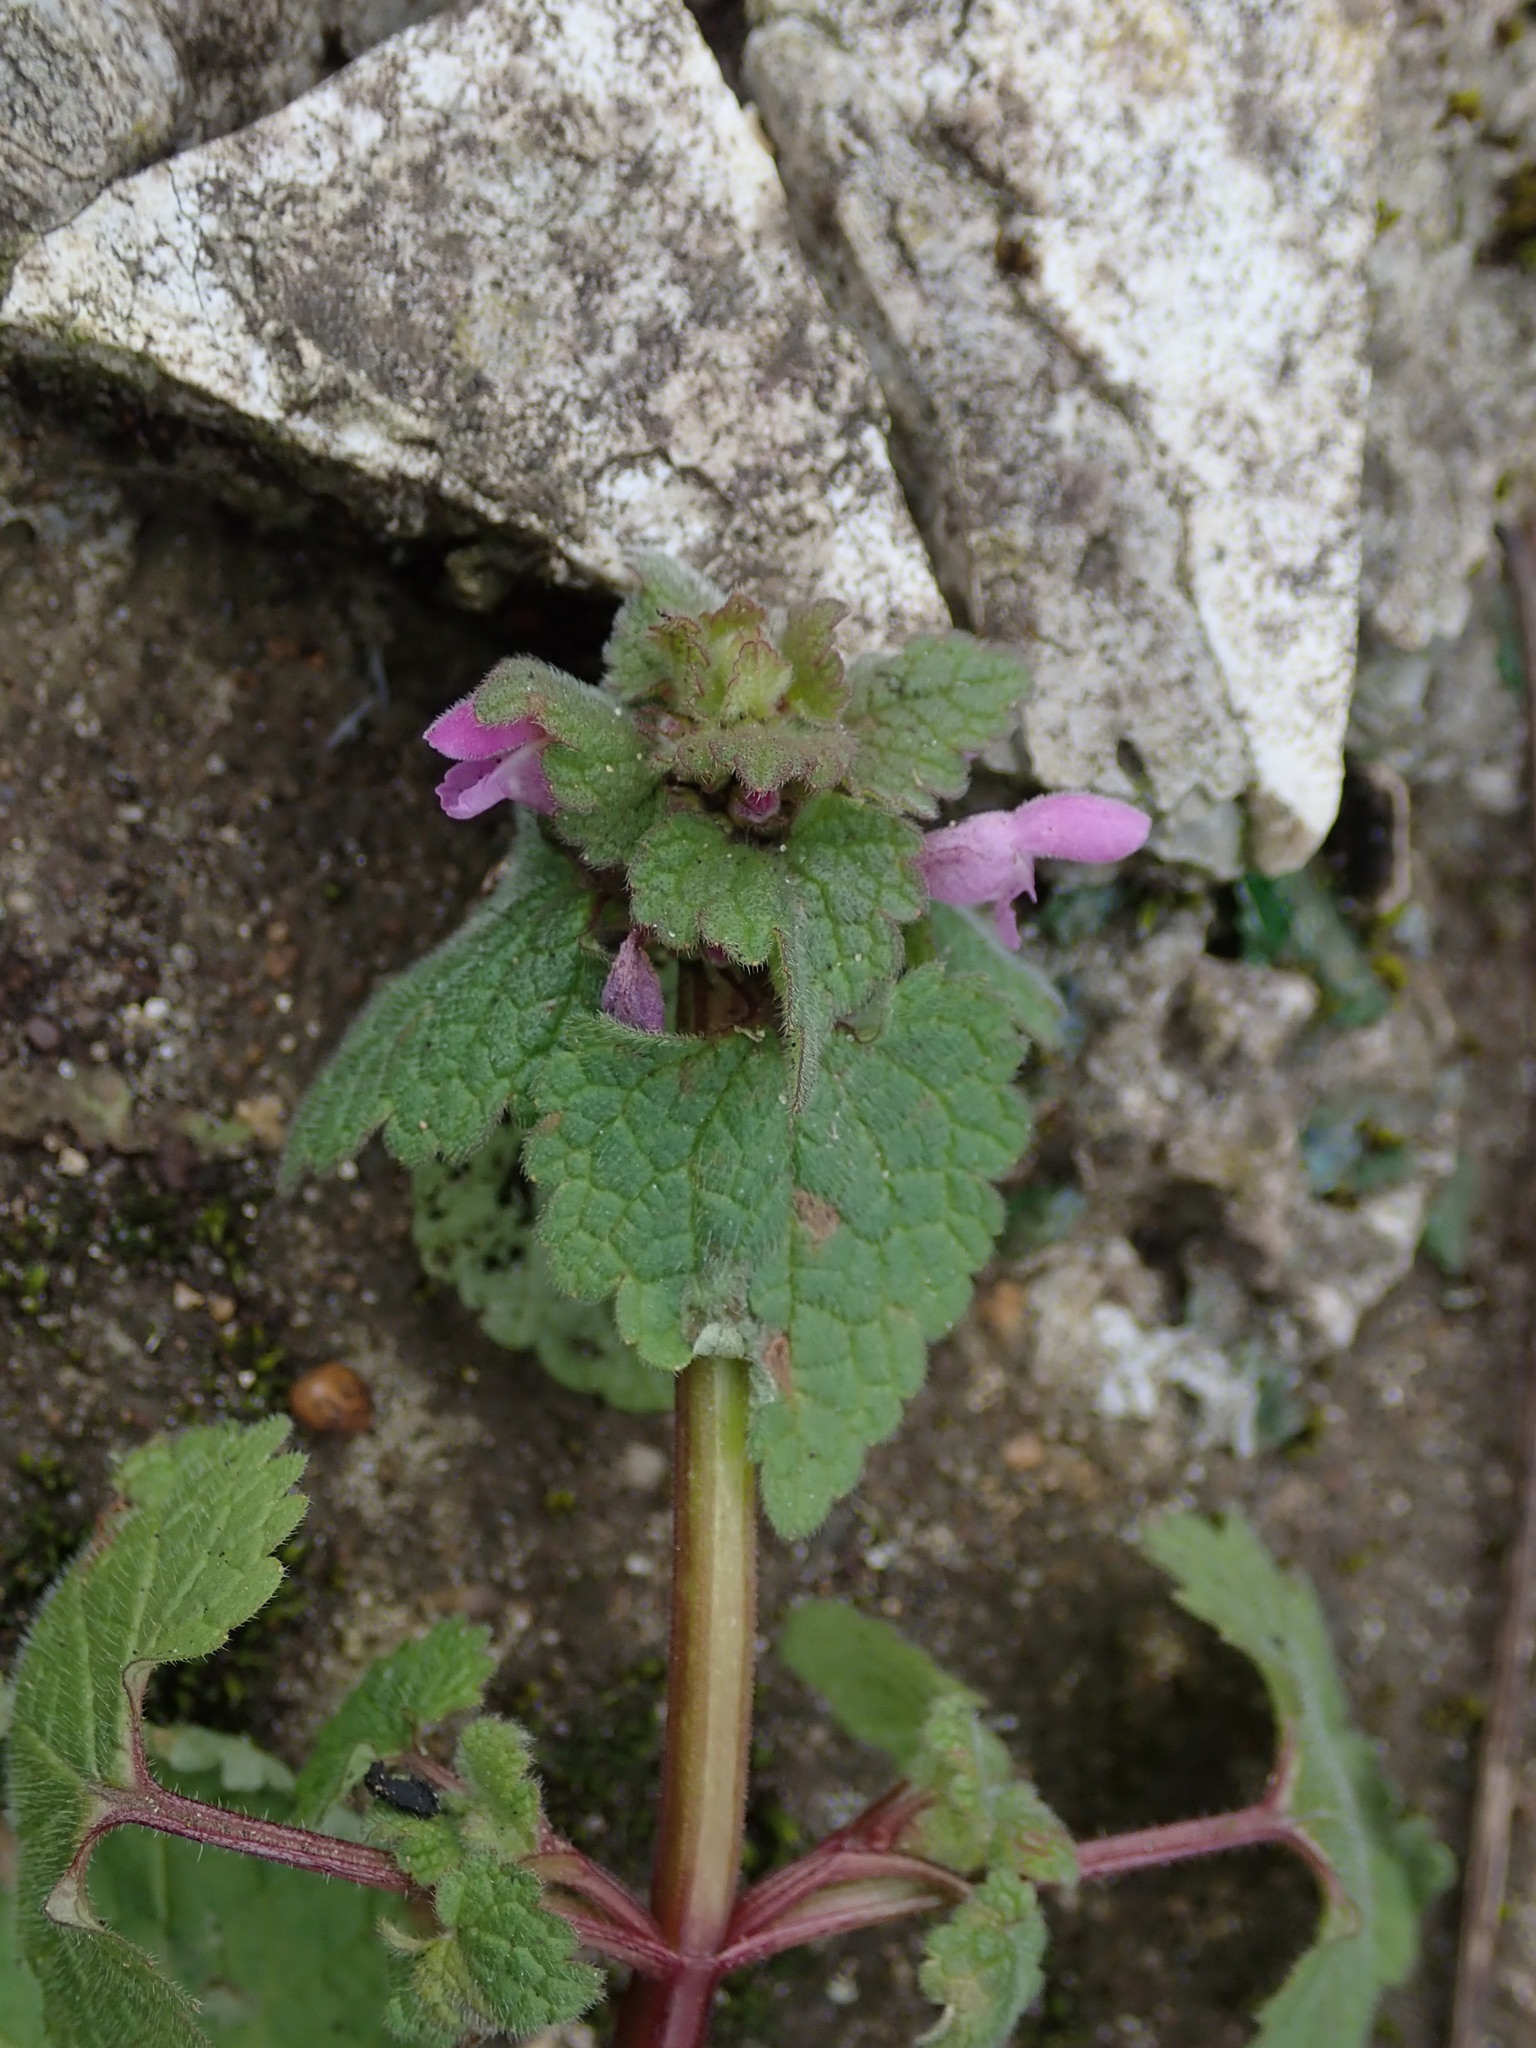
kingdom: Plantae
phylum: Tracheophyta
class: Magnoliopsida
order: Lamiales
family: Lamiaceae
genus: Lamium
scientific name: Lamium purpureum
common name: Red dead-nettle
